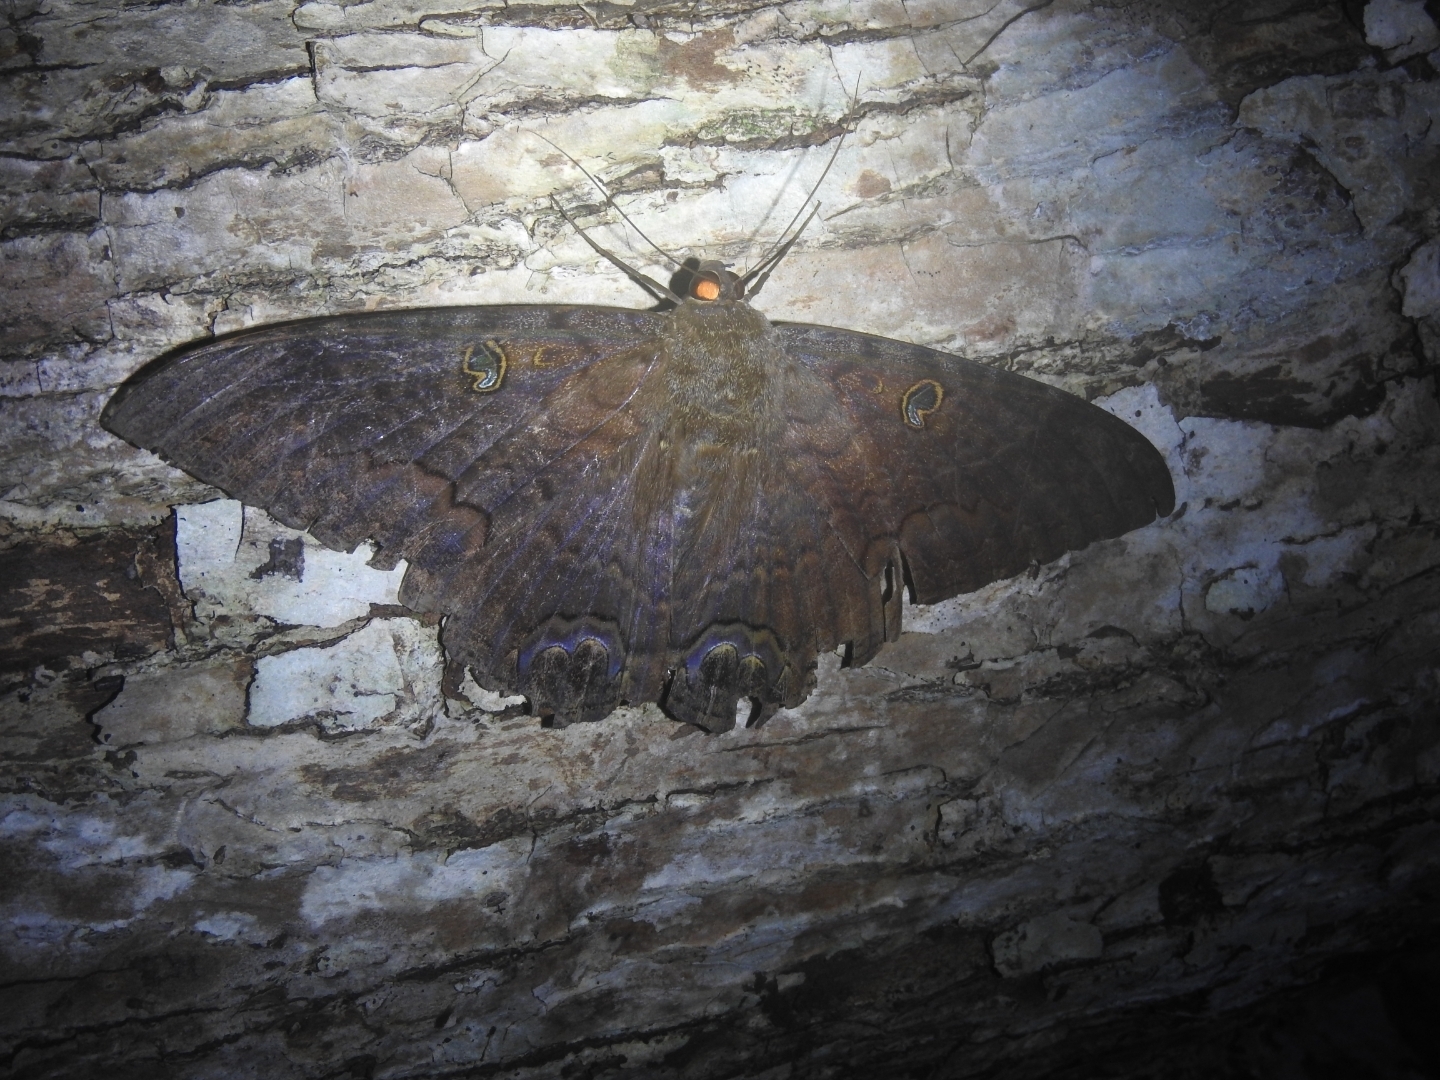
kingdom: Animalia
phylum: Arthropoda
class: Insecta
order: Lepidoptera
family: Erebidae
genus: Ascalapha
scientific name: Ascalapha odorata
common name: Black witch
